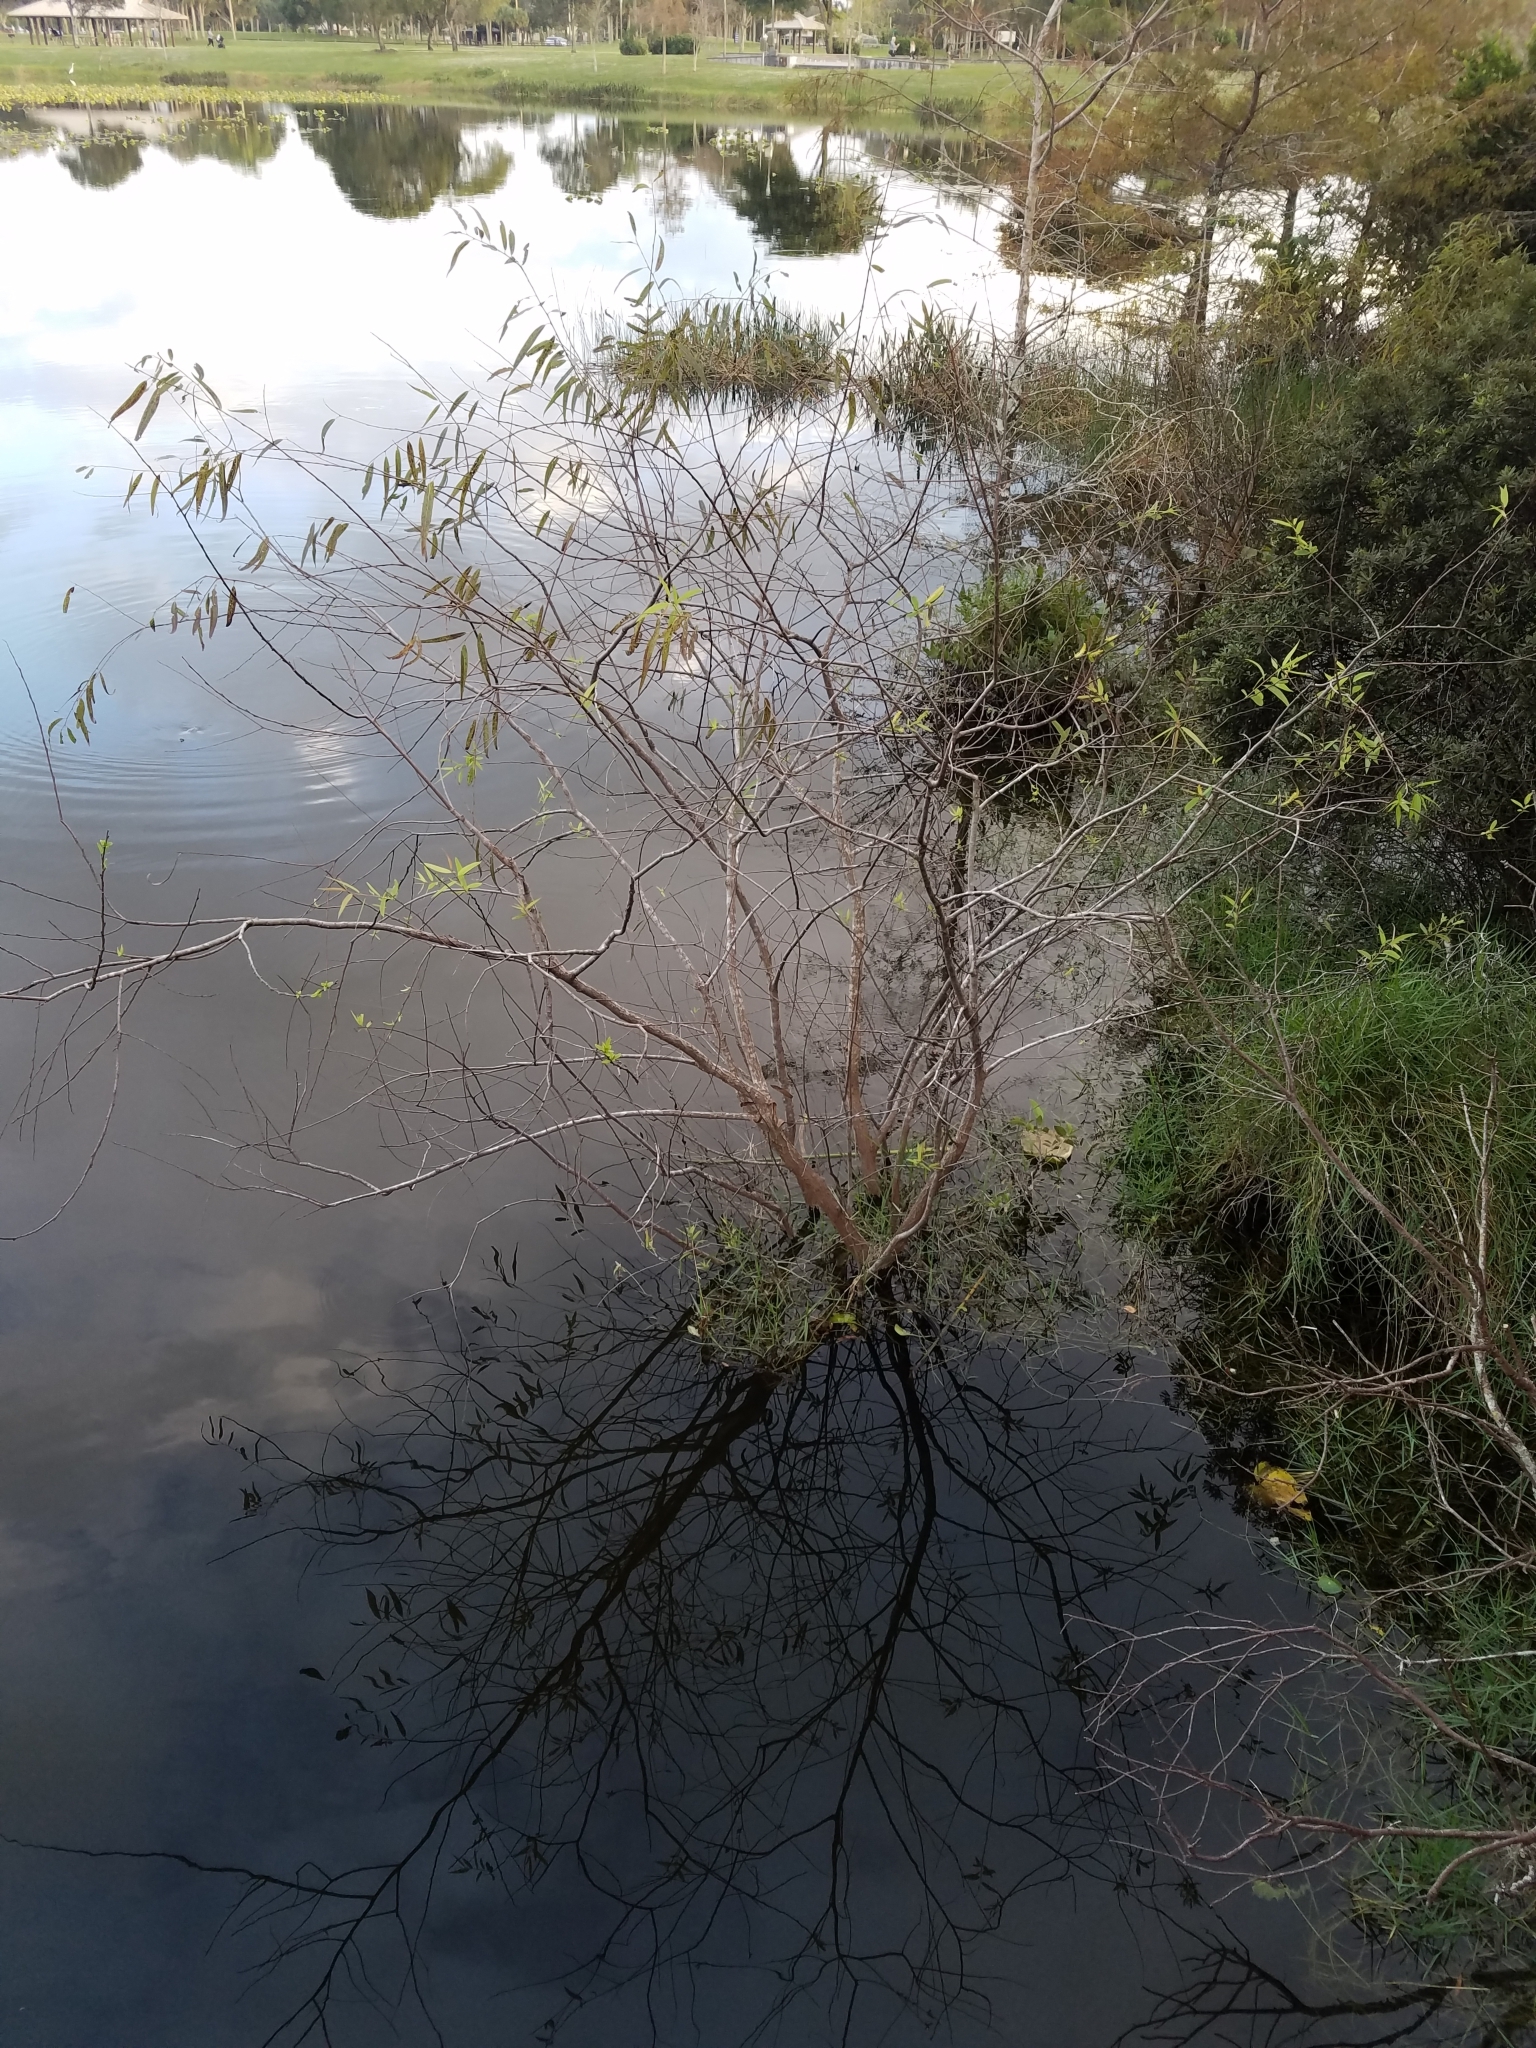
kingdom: Plantae
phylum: Tracheophyta
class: Magnoliopsida
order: Malpighiales
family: Salicaceae
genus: Salix
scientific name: Salix caroliniana
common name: Carolina willow
